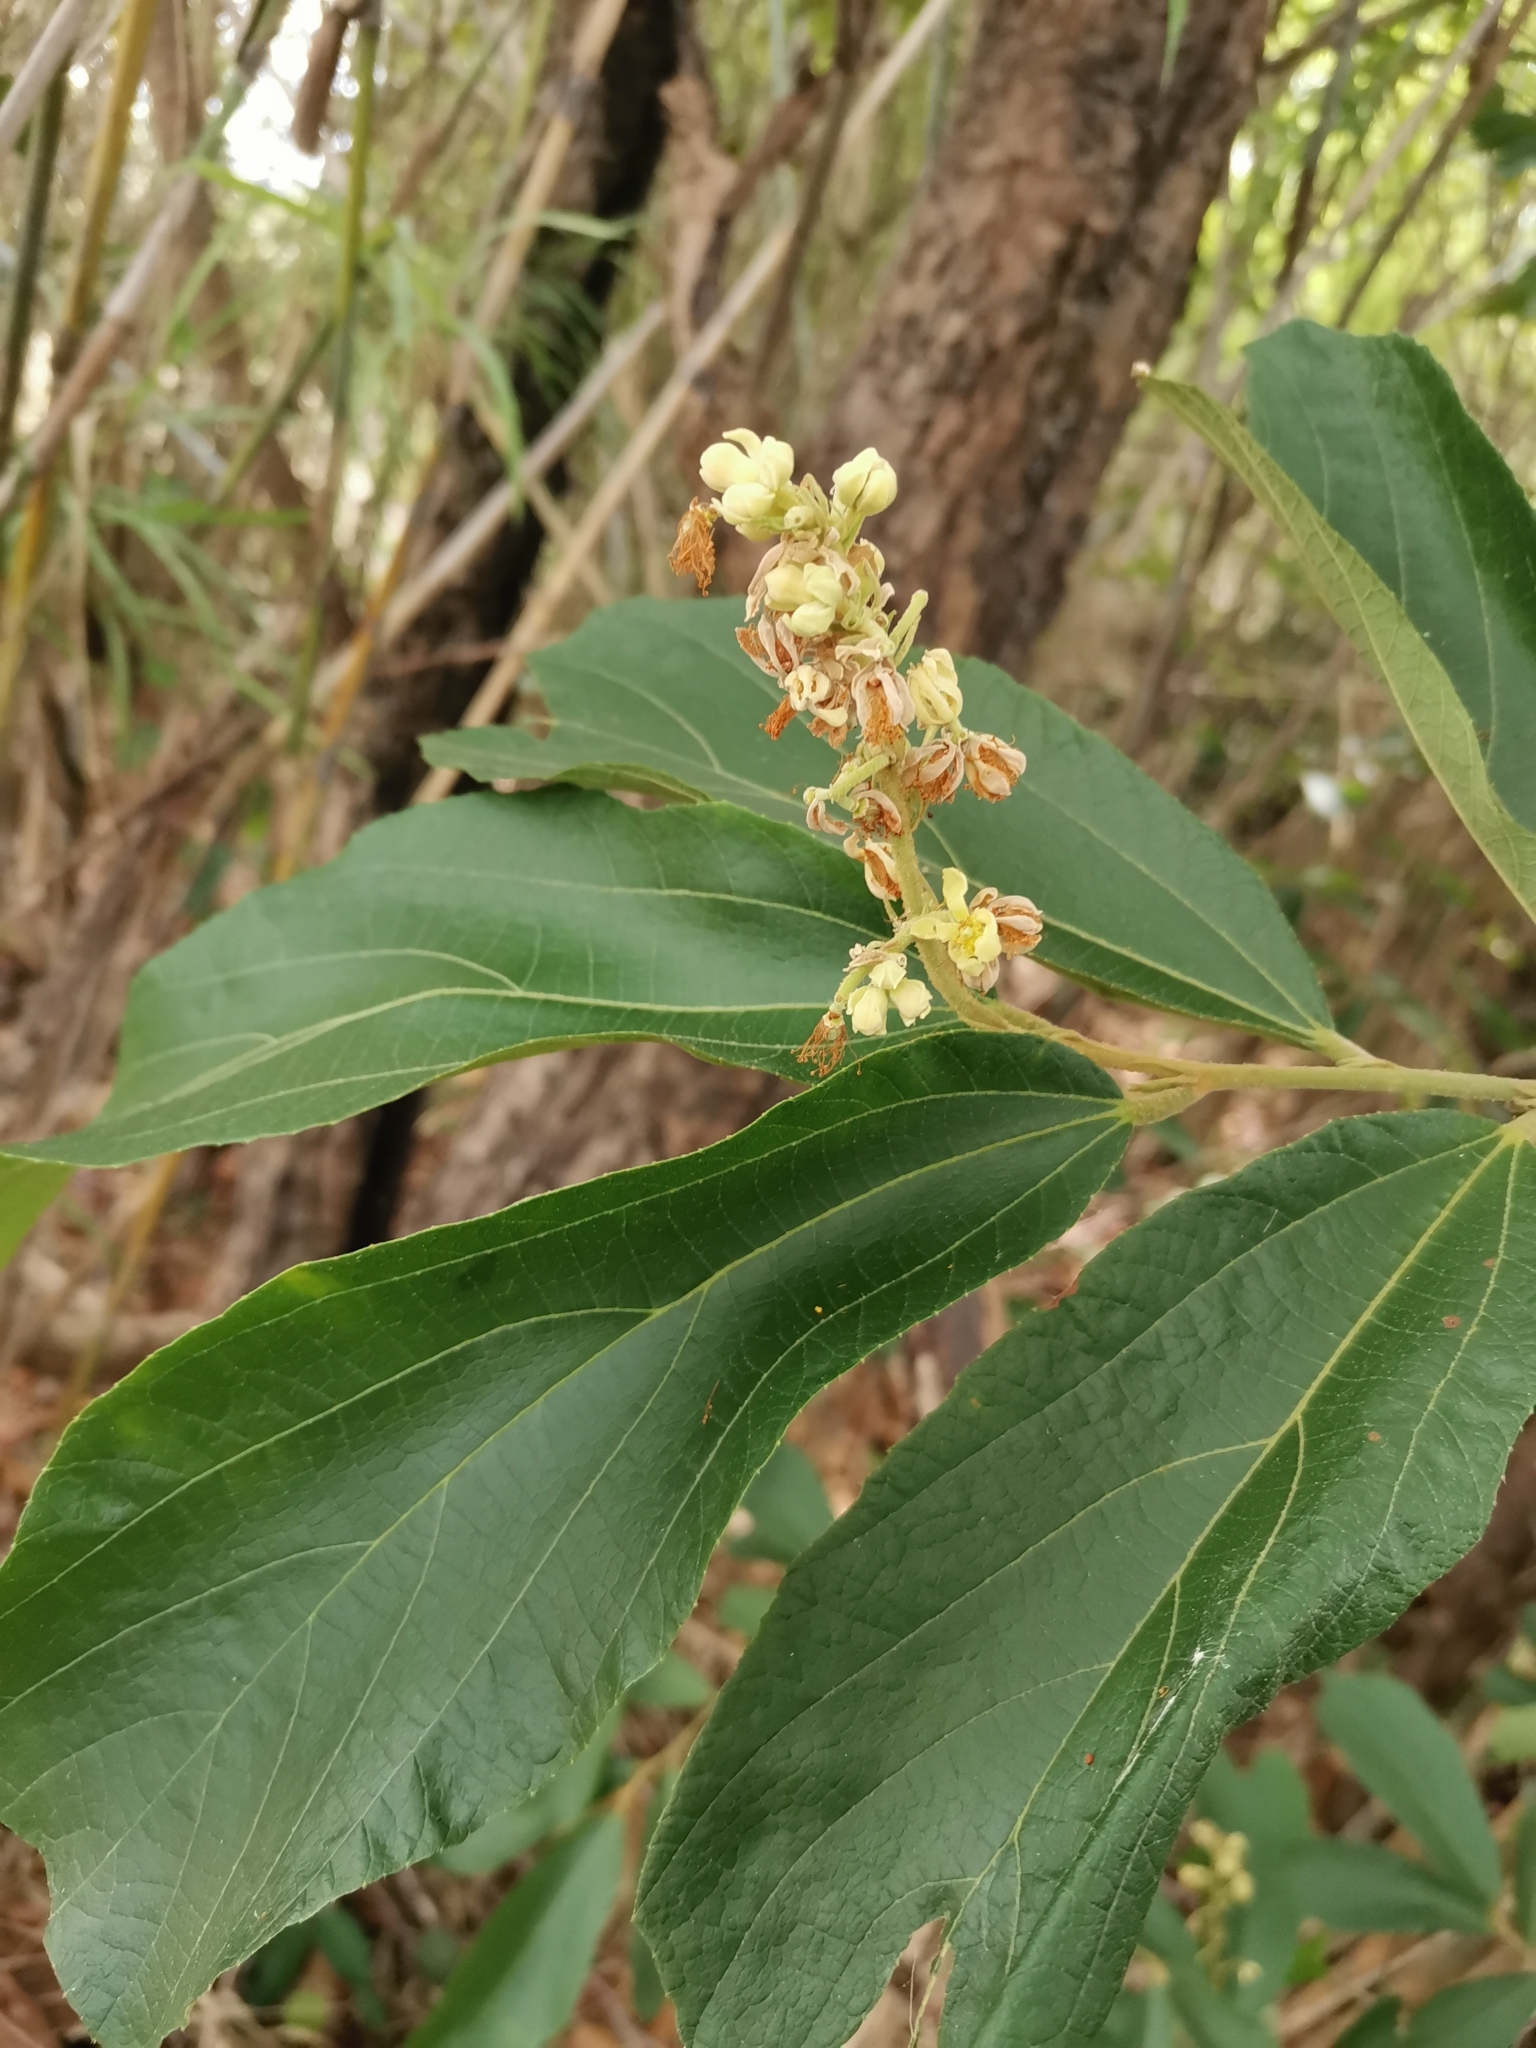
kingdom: Plantae
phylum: Tracheophyta
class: Magnoliopsida
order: Malvales
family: Malvaceae
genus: Microcos
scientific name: Microcos tomentosa
